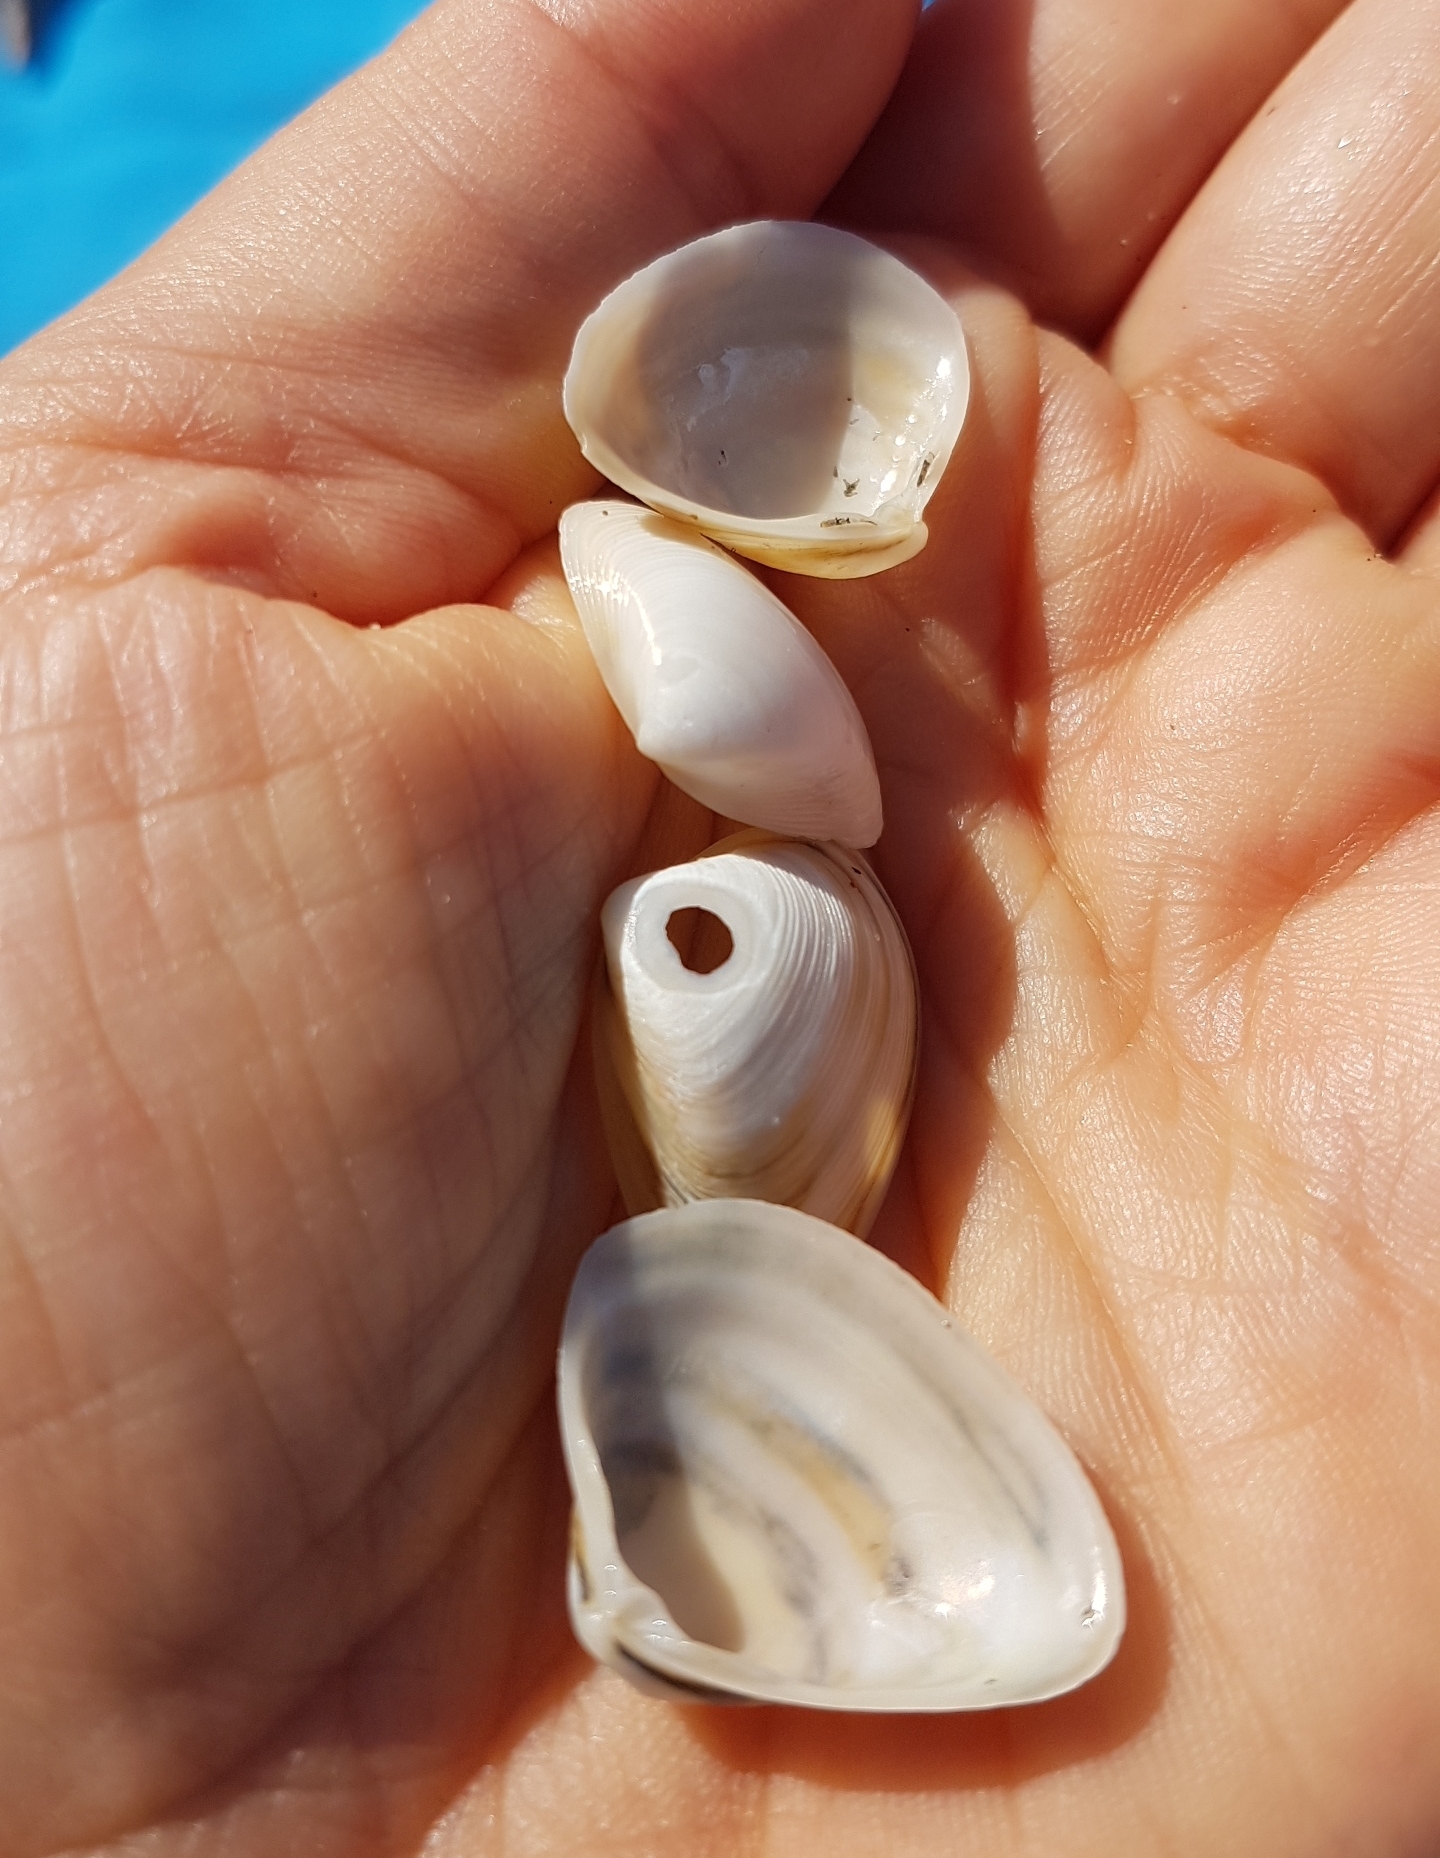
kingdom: Animalia
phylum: Mollusca
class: Bivalvia
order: Venerida
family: Mactridae
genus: Spisula
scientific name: Spisula subtruncata
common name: Cut trough shell
